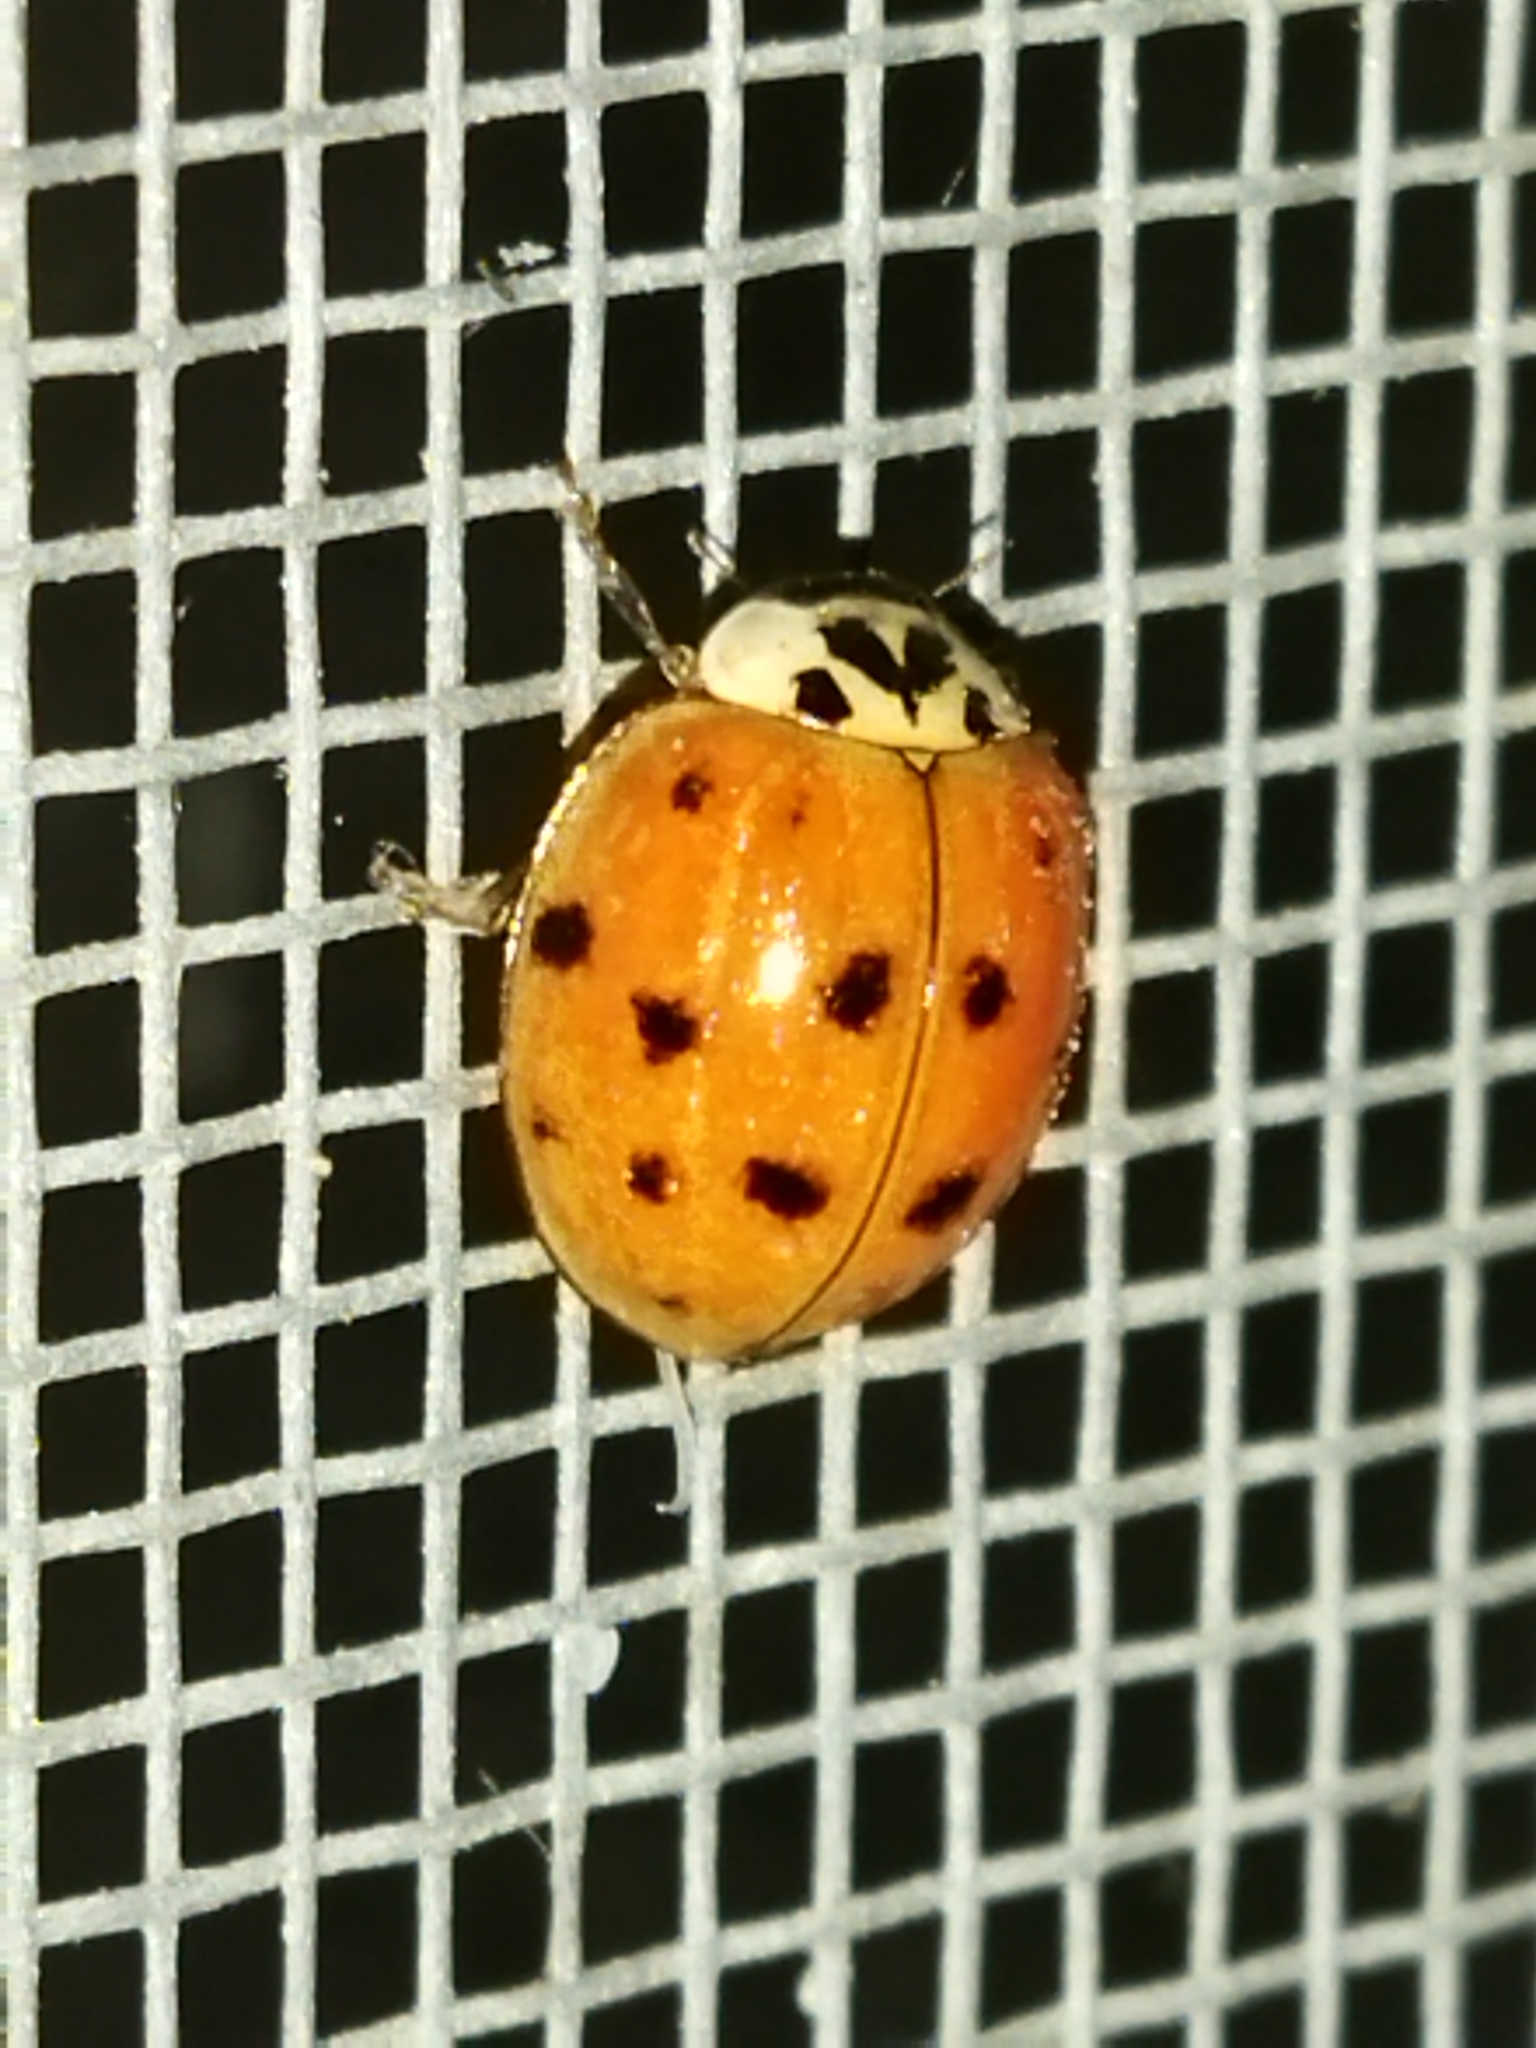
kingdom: Animalia
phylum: Arthropoda
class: Insecta
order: Coleoptera
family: Coccinellidae
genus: Harmonia
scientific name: Harmonia axyridis
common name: Harlequin ladybird
